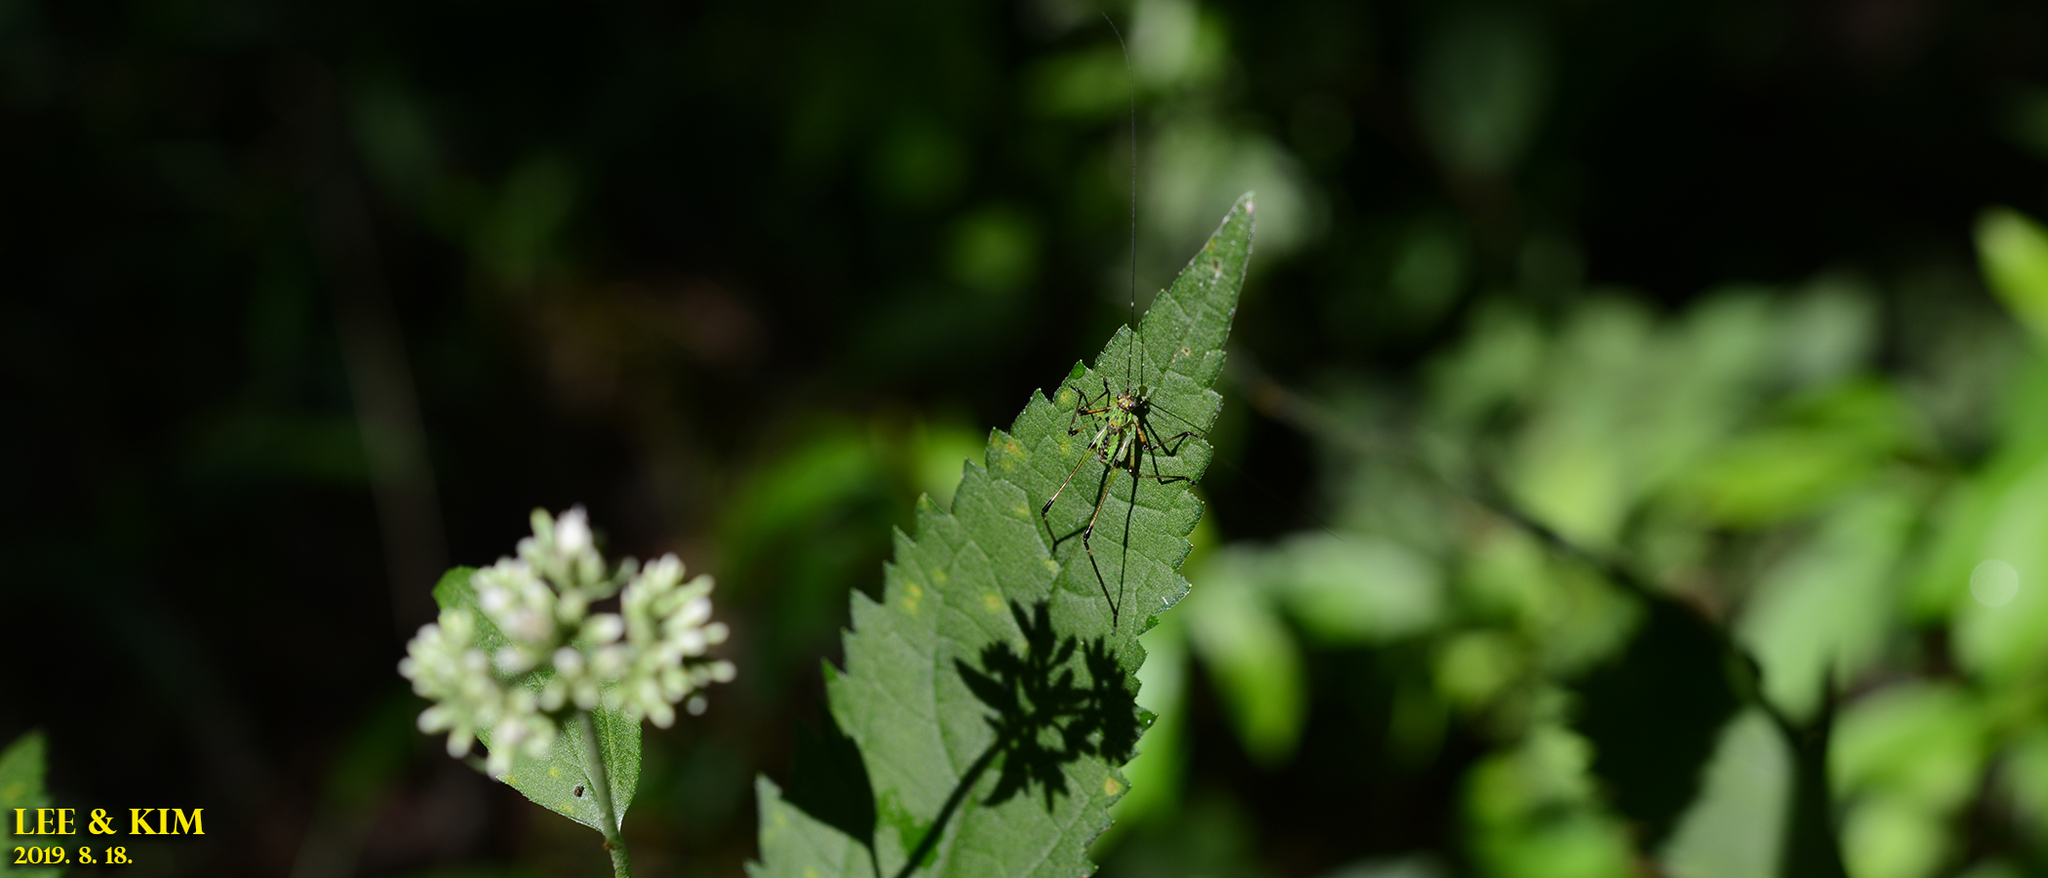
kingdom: Animalia
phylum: Arthropoda
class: Insecta
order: Orthoptera
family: Tettigoniidae
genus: Phaneroptera
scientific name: Phaneroptera nigroantennata
